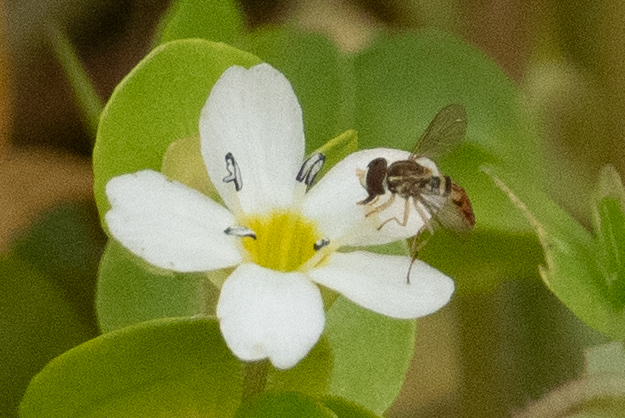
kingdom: Animalia
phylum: Arthropoda
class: Insecta
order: Diptera
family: Syrphidae
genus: Toxomerus
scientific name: Toxomerus marginatus
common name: Syrphid fly
